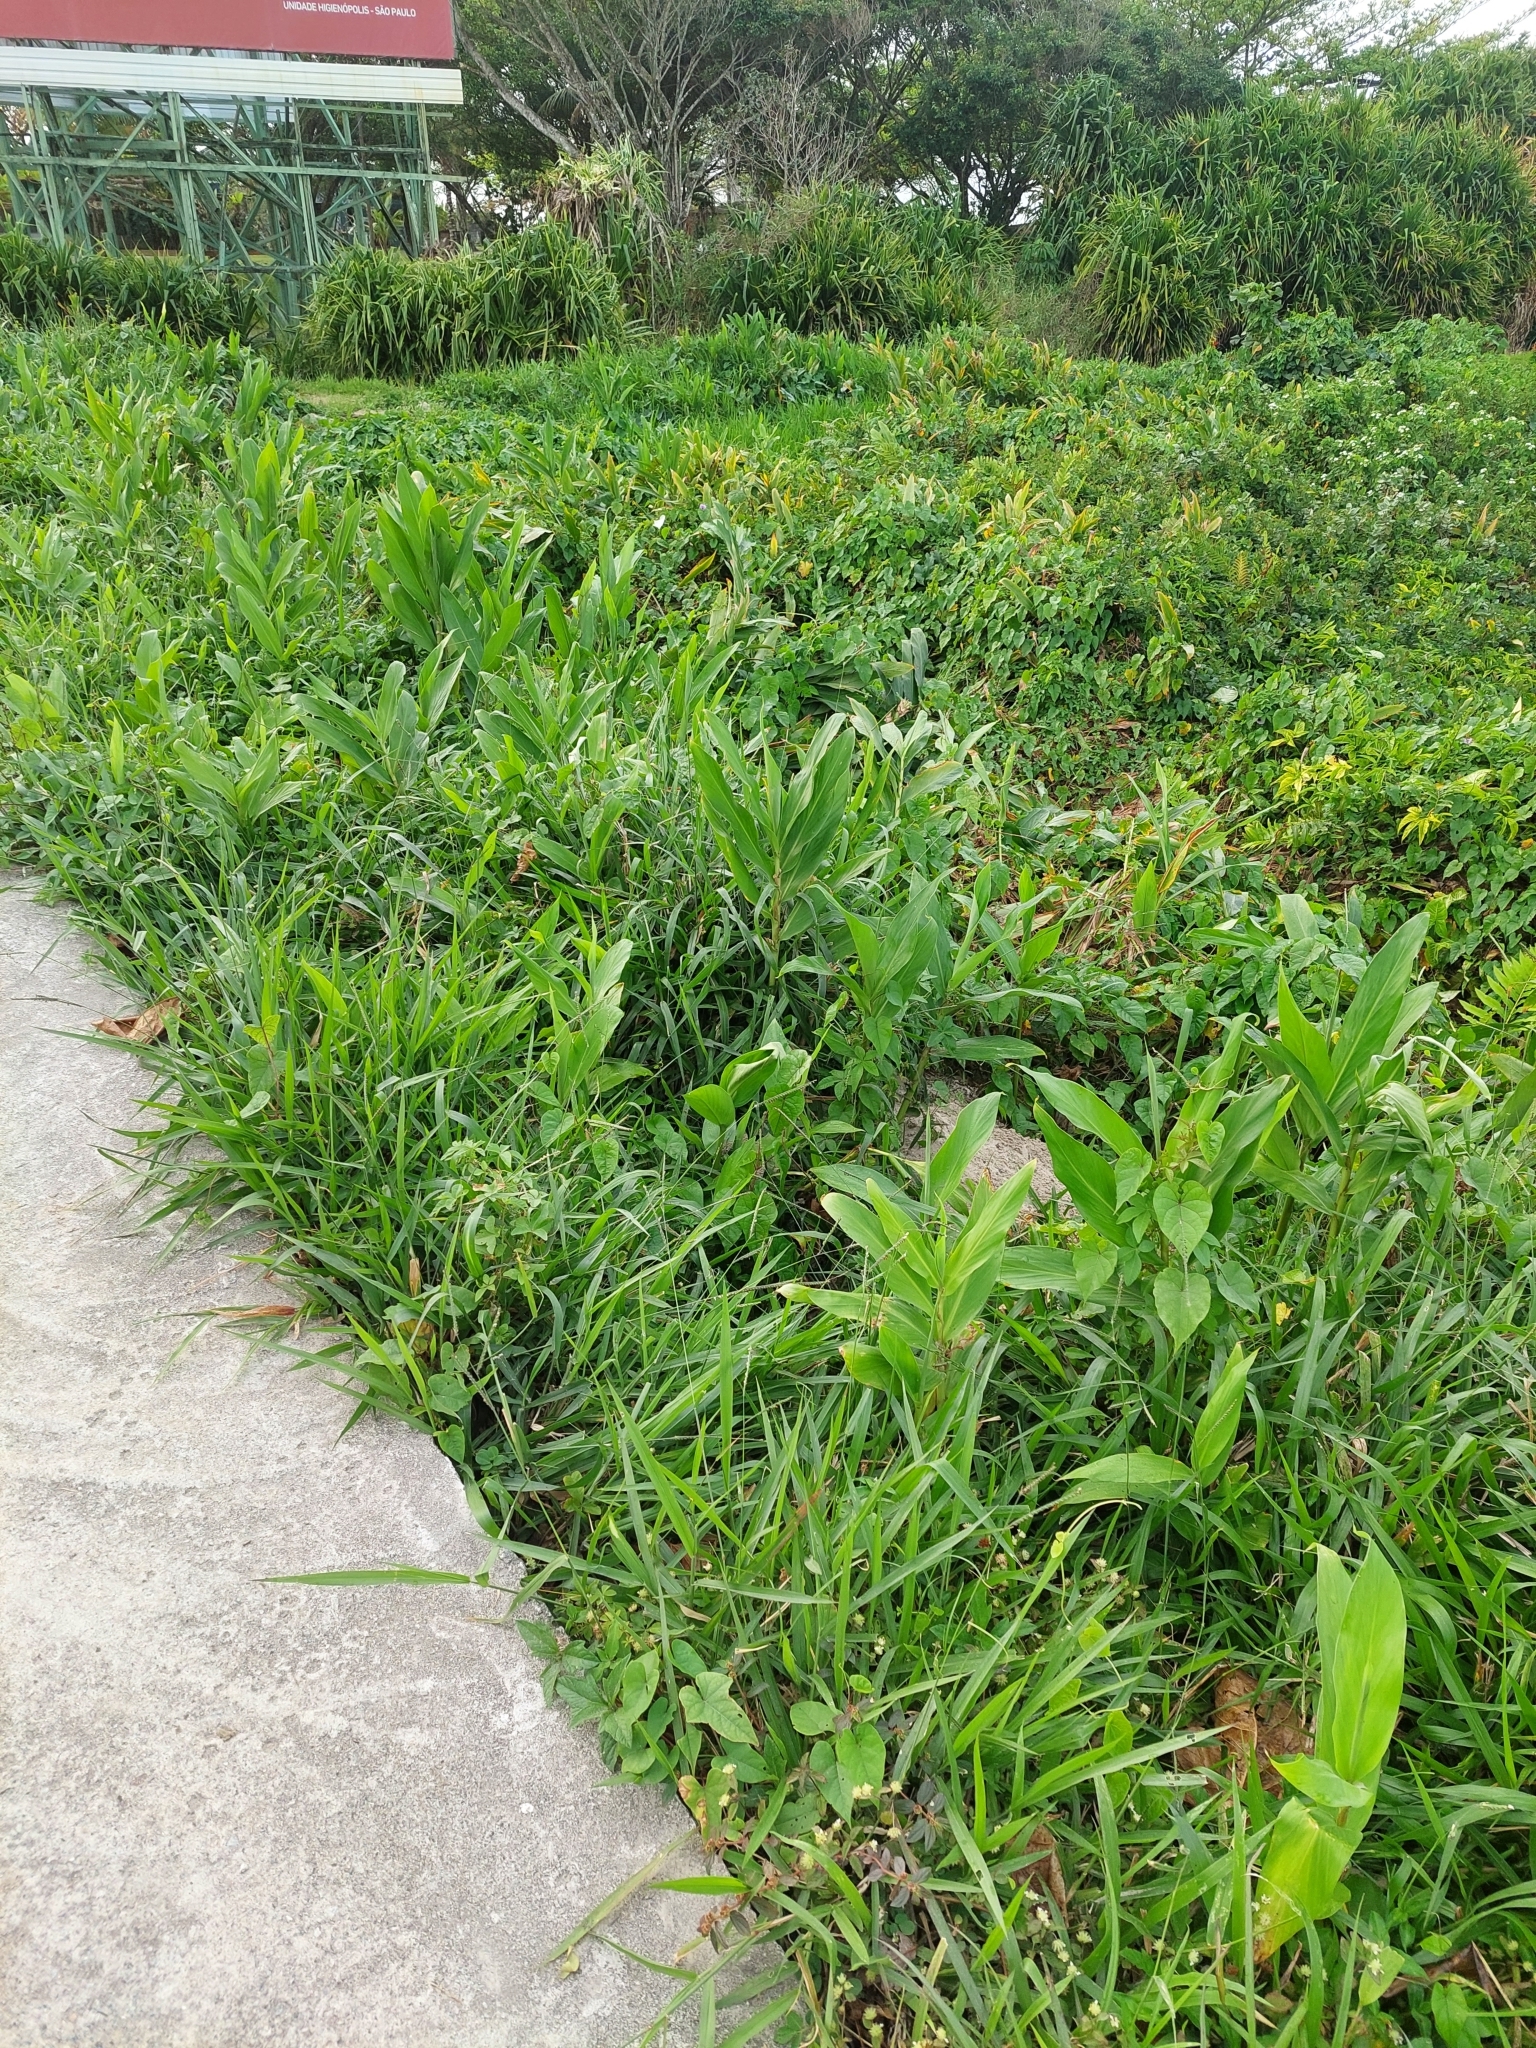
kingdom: Plantae
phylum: Tracheophyta
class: Liliopsida
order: Zingiberales
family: Zingiberaceae
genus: Hedychium
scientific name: Hedychium coronarium
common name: White garland-lily
